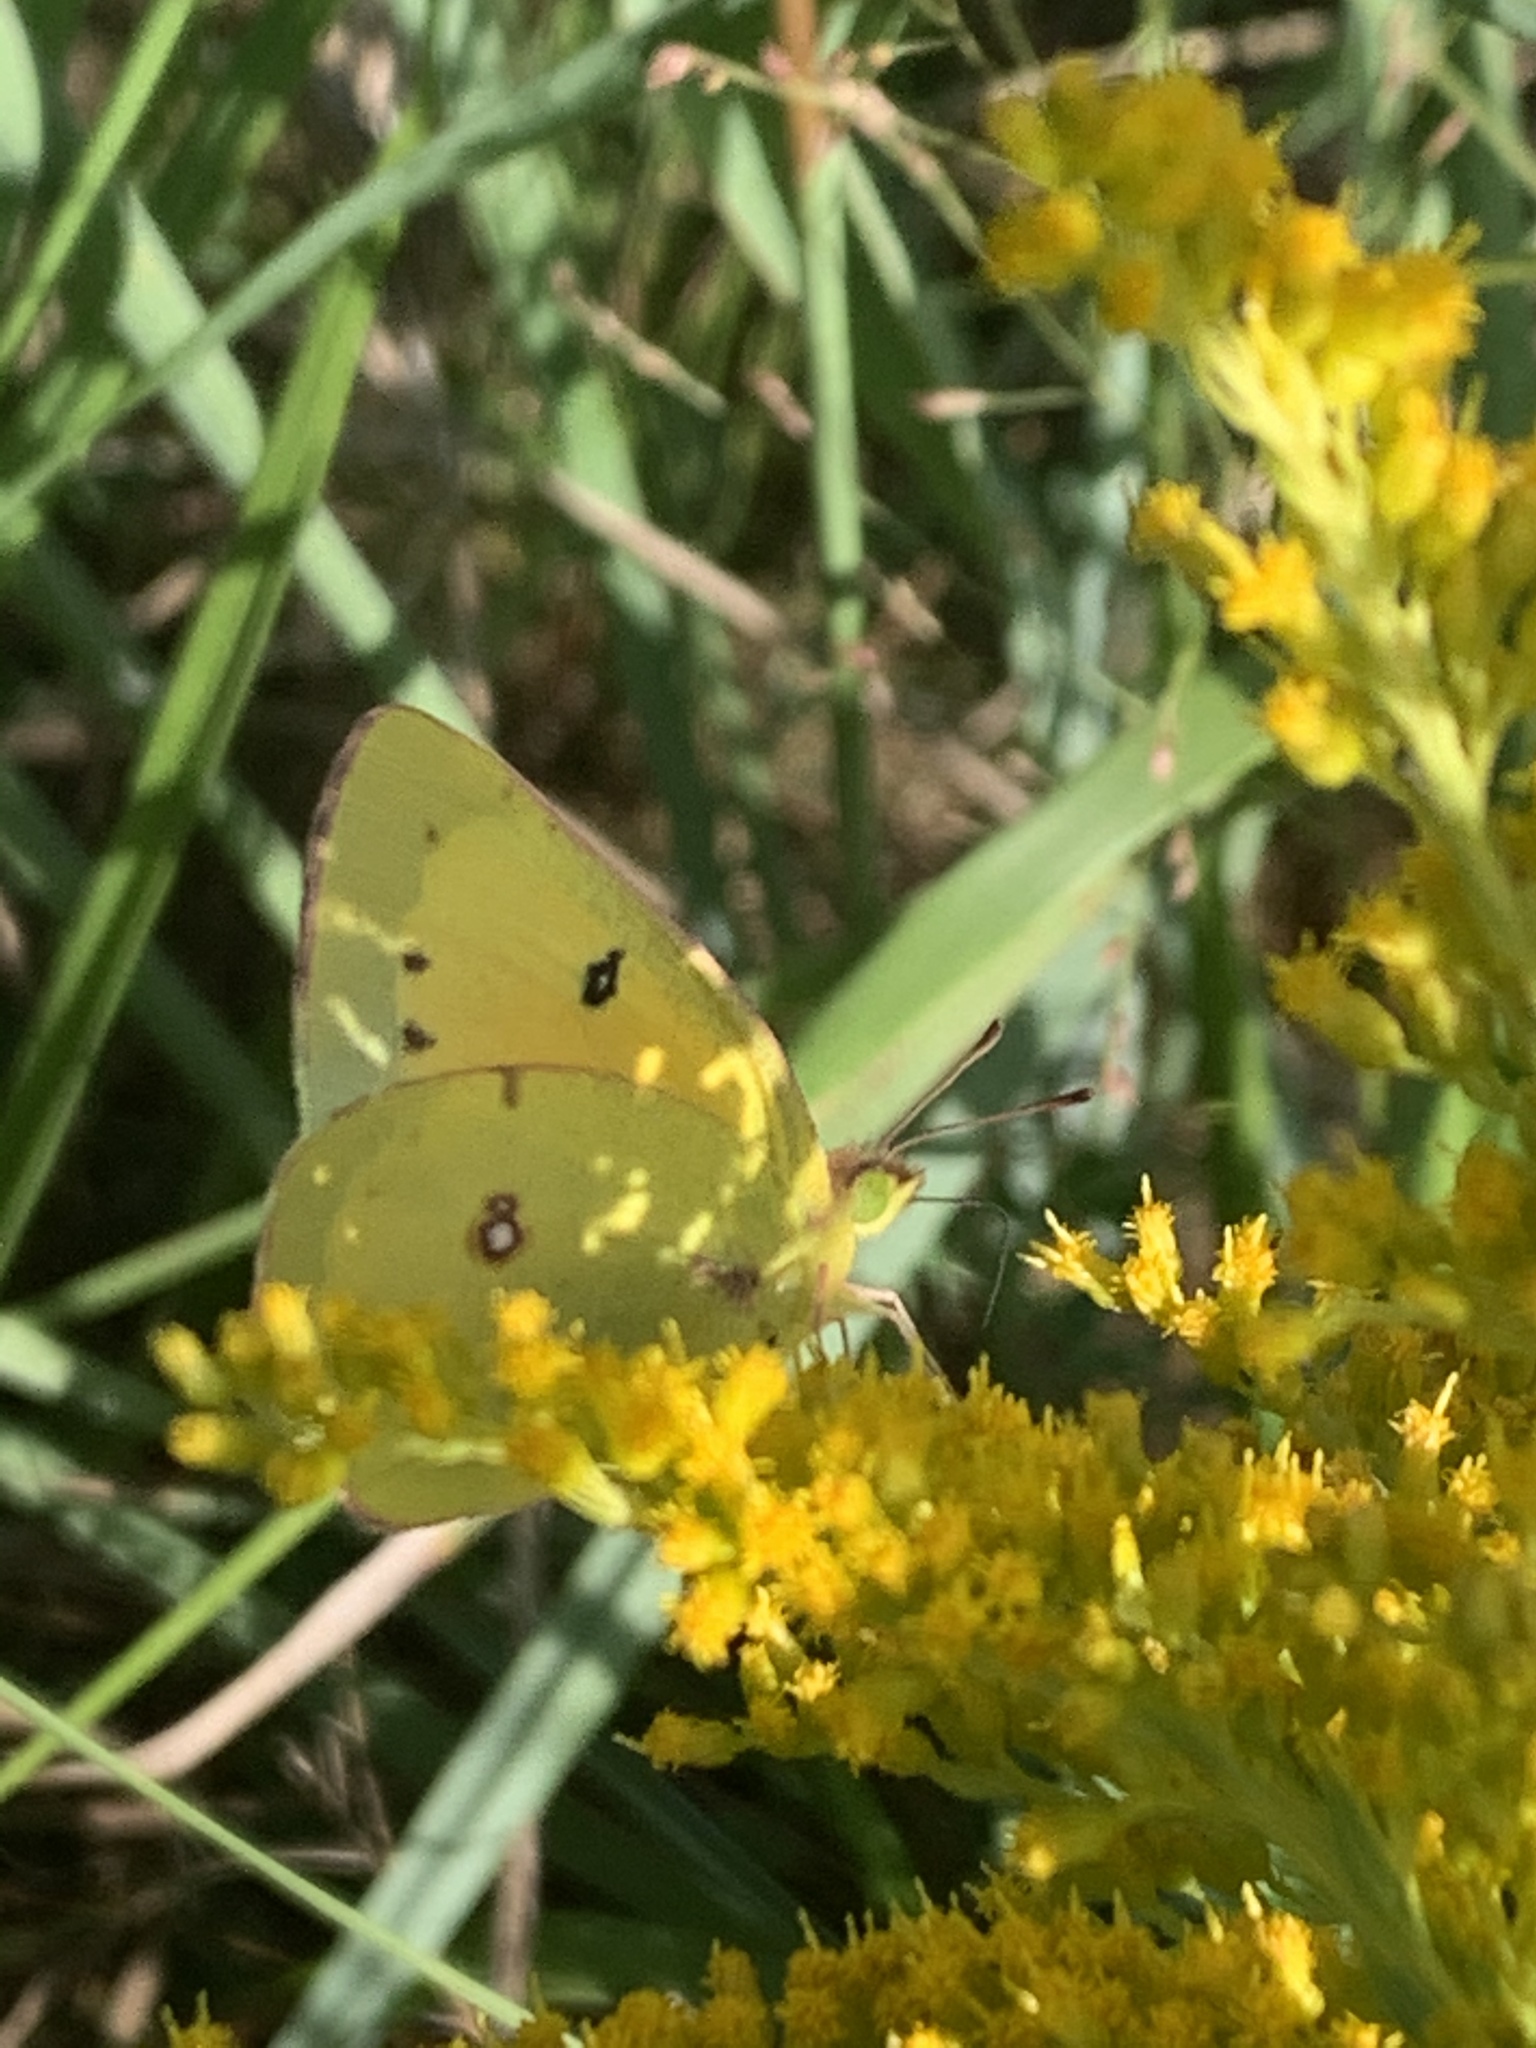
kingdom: Animalia
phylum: Arthropoda
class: Insecta
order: Lepidoptera
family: Pieridae
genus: Colias
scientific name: Colias eurytheme
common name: Alfalfa butterfly
